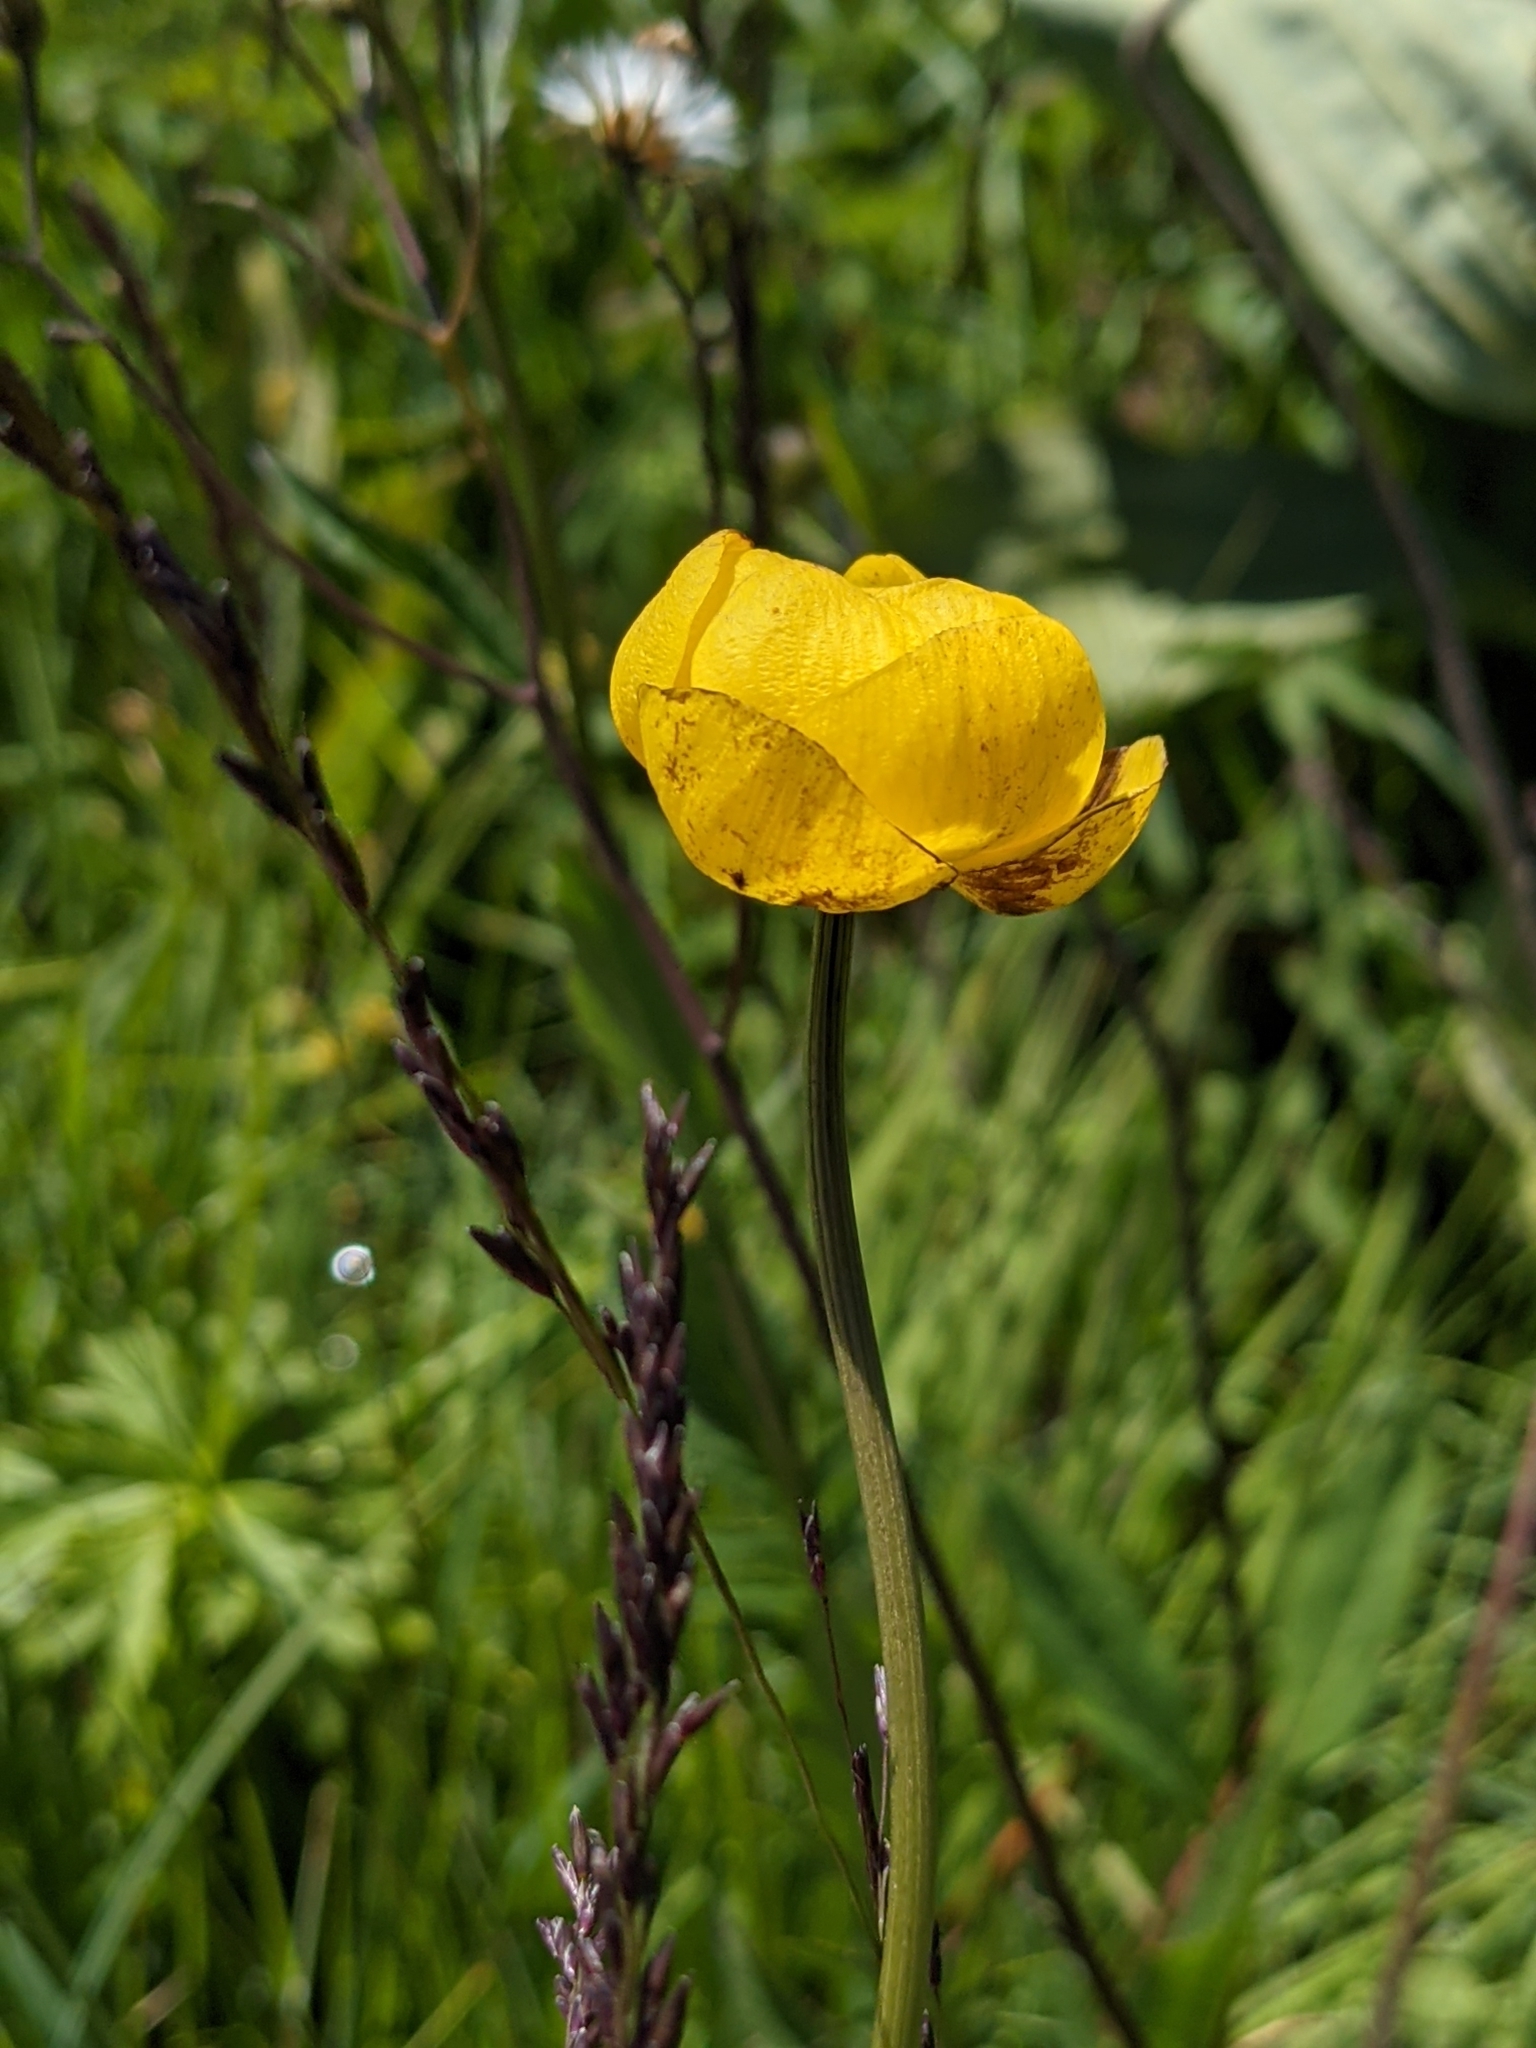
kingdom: Plantae
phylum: Tracheophyta
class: Magnoliopsida
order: Ranunculales
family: Ranunculaceae
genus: Trollius
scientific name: Trollius europaeus
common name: European globeflower
